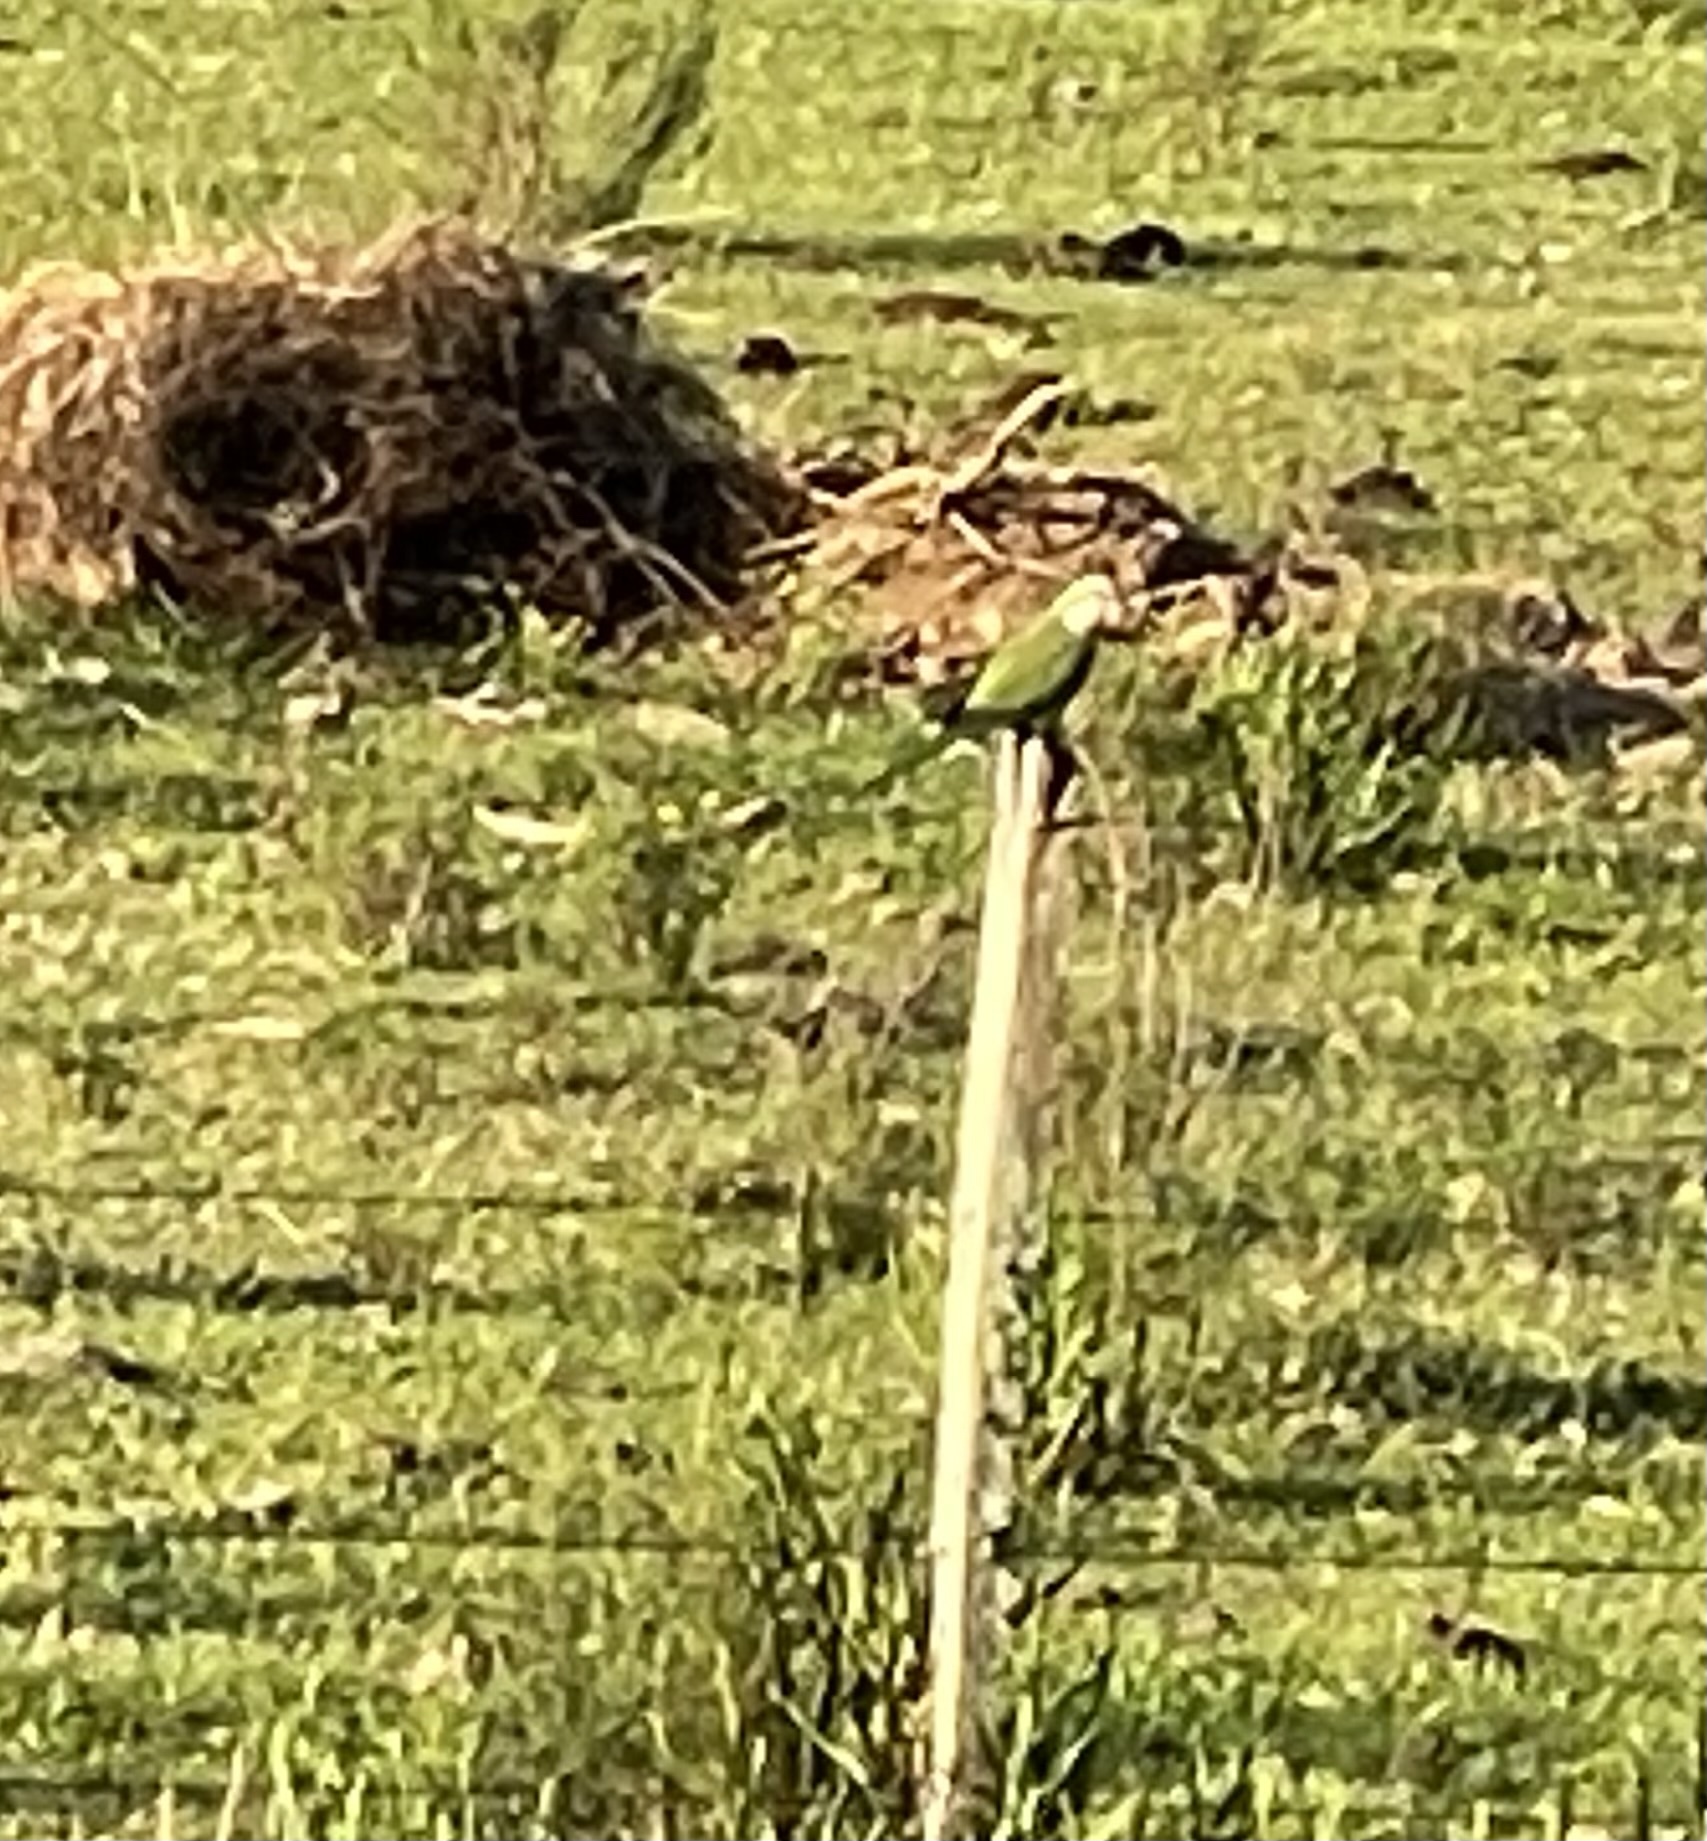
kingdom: Animalia
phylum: Chordata
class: Aves
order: Psittaciformes
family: Psittacidae
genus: Myiopsitta
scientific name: Myiopsitta monachus
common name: Monk parakeet
